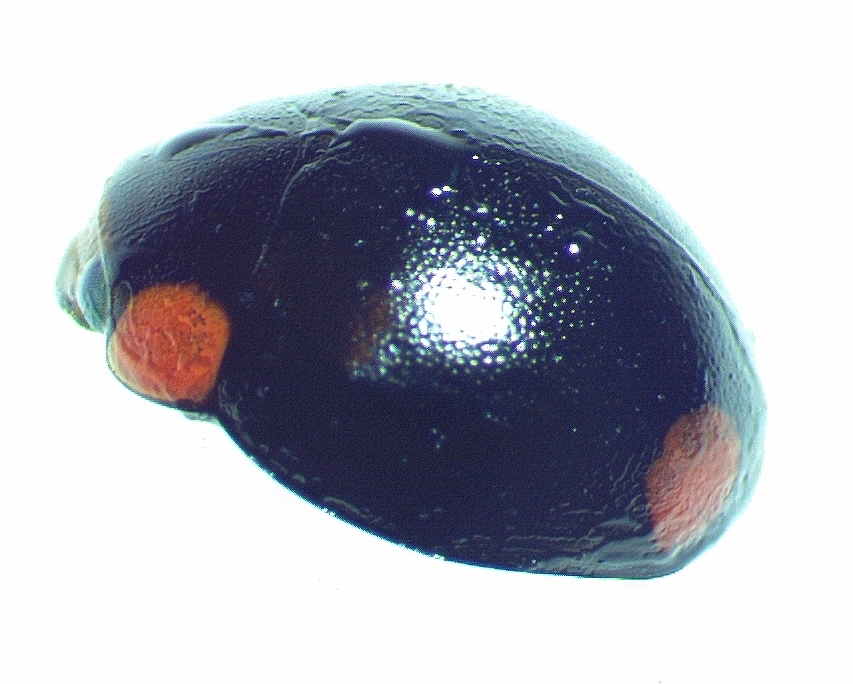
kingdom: Animalia
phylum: Arthropoda
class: Insecta
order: Coleoptera
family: Coccinellidae
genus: Hyperaspis
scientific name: Hyperaspis bigeminata
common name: Bigeminate sigil lady beetle
